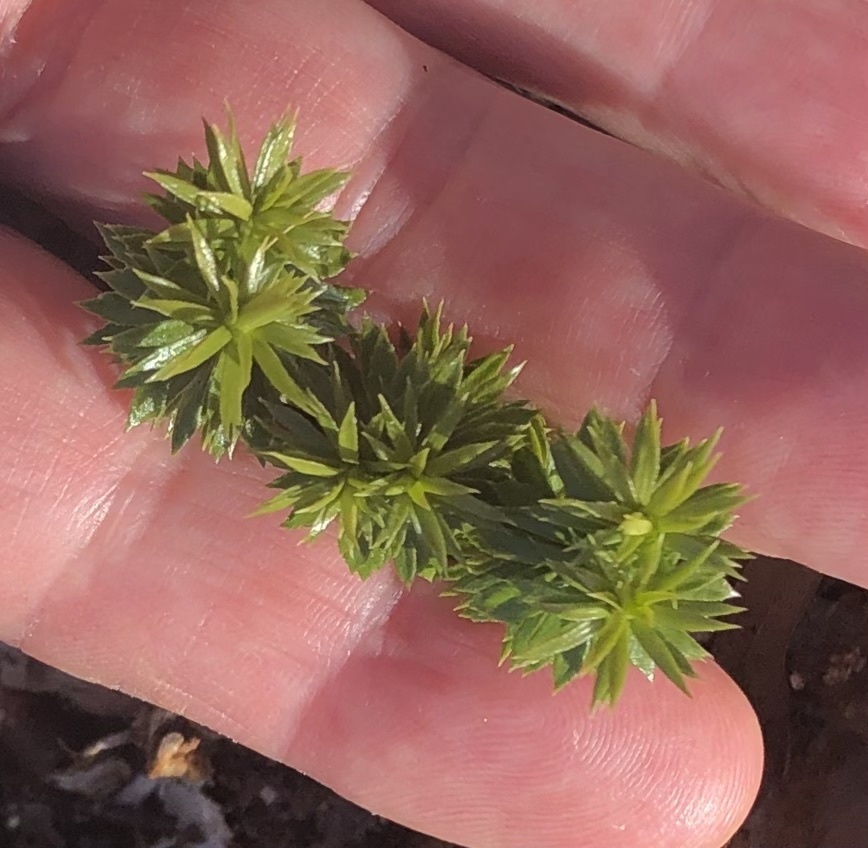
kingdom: Plantae
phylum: Tracheophyta
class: Lycopodiopsida
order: Lycopodiales
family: Lycopodiaceae
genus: Huperzia
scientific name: Huperzia lucidula
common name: Shining clubmoss
